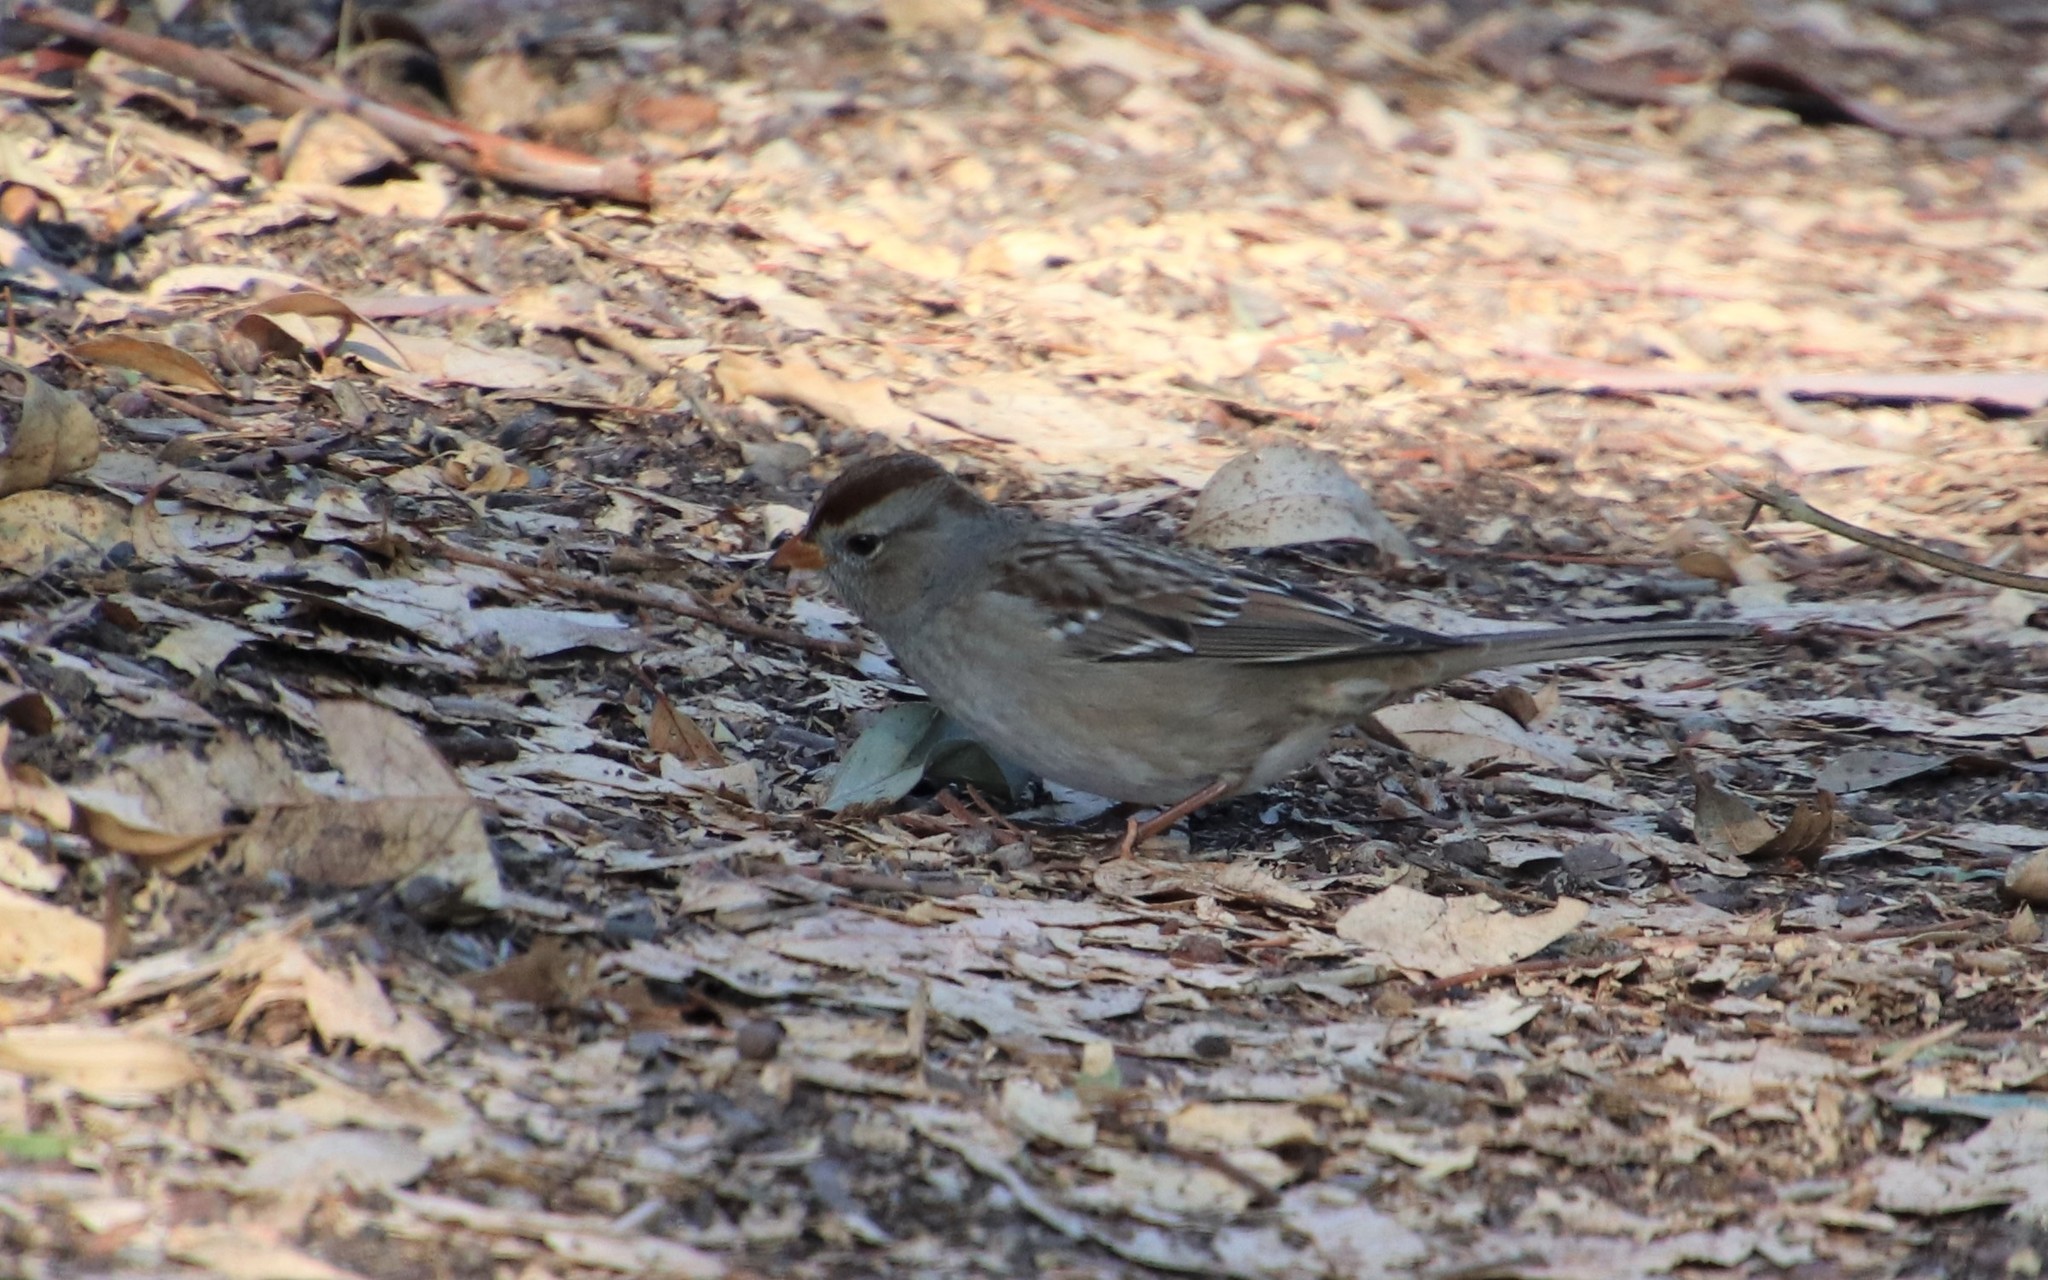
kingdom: Animalia
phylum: Chordata
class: Aves
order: Passeriformes
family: Passerellidae
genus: Zonotrichia
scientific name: Zonotrichia leucophrys
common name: White-crowned sparrow
